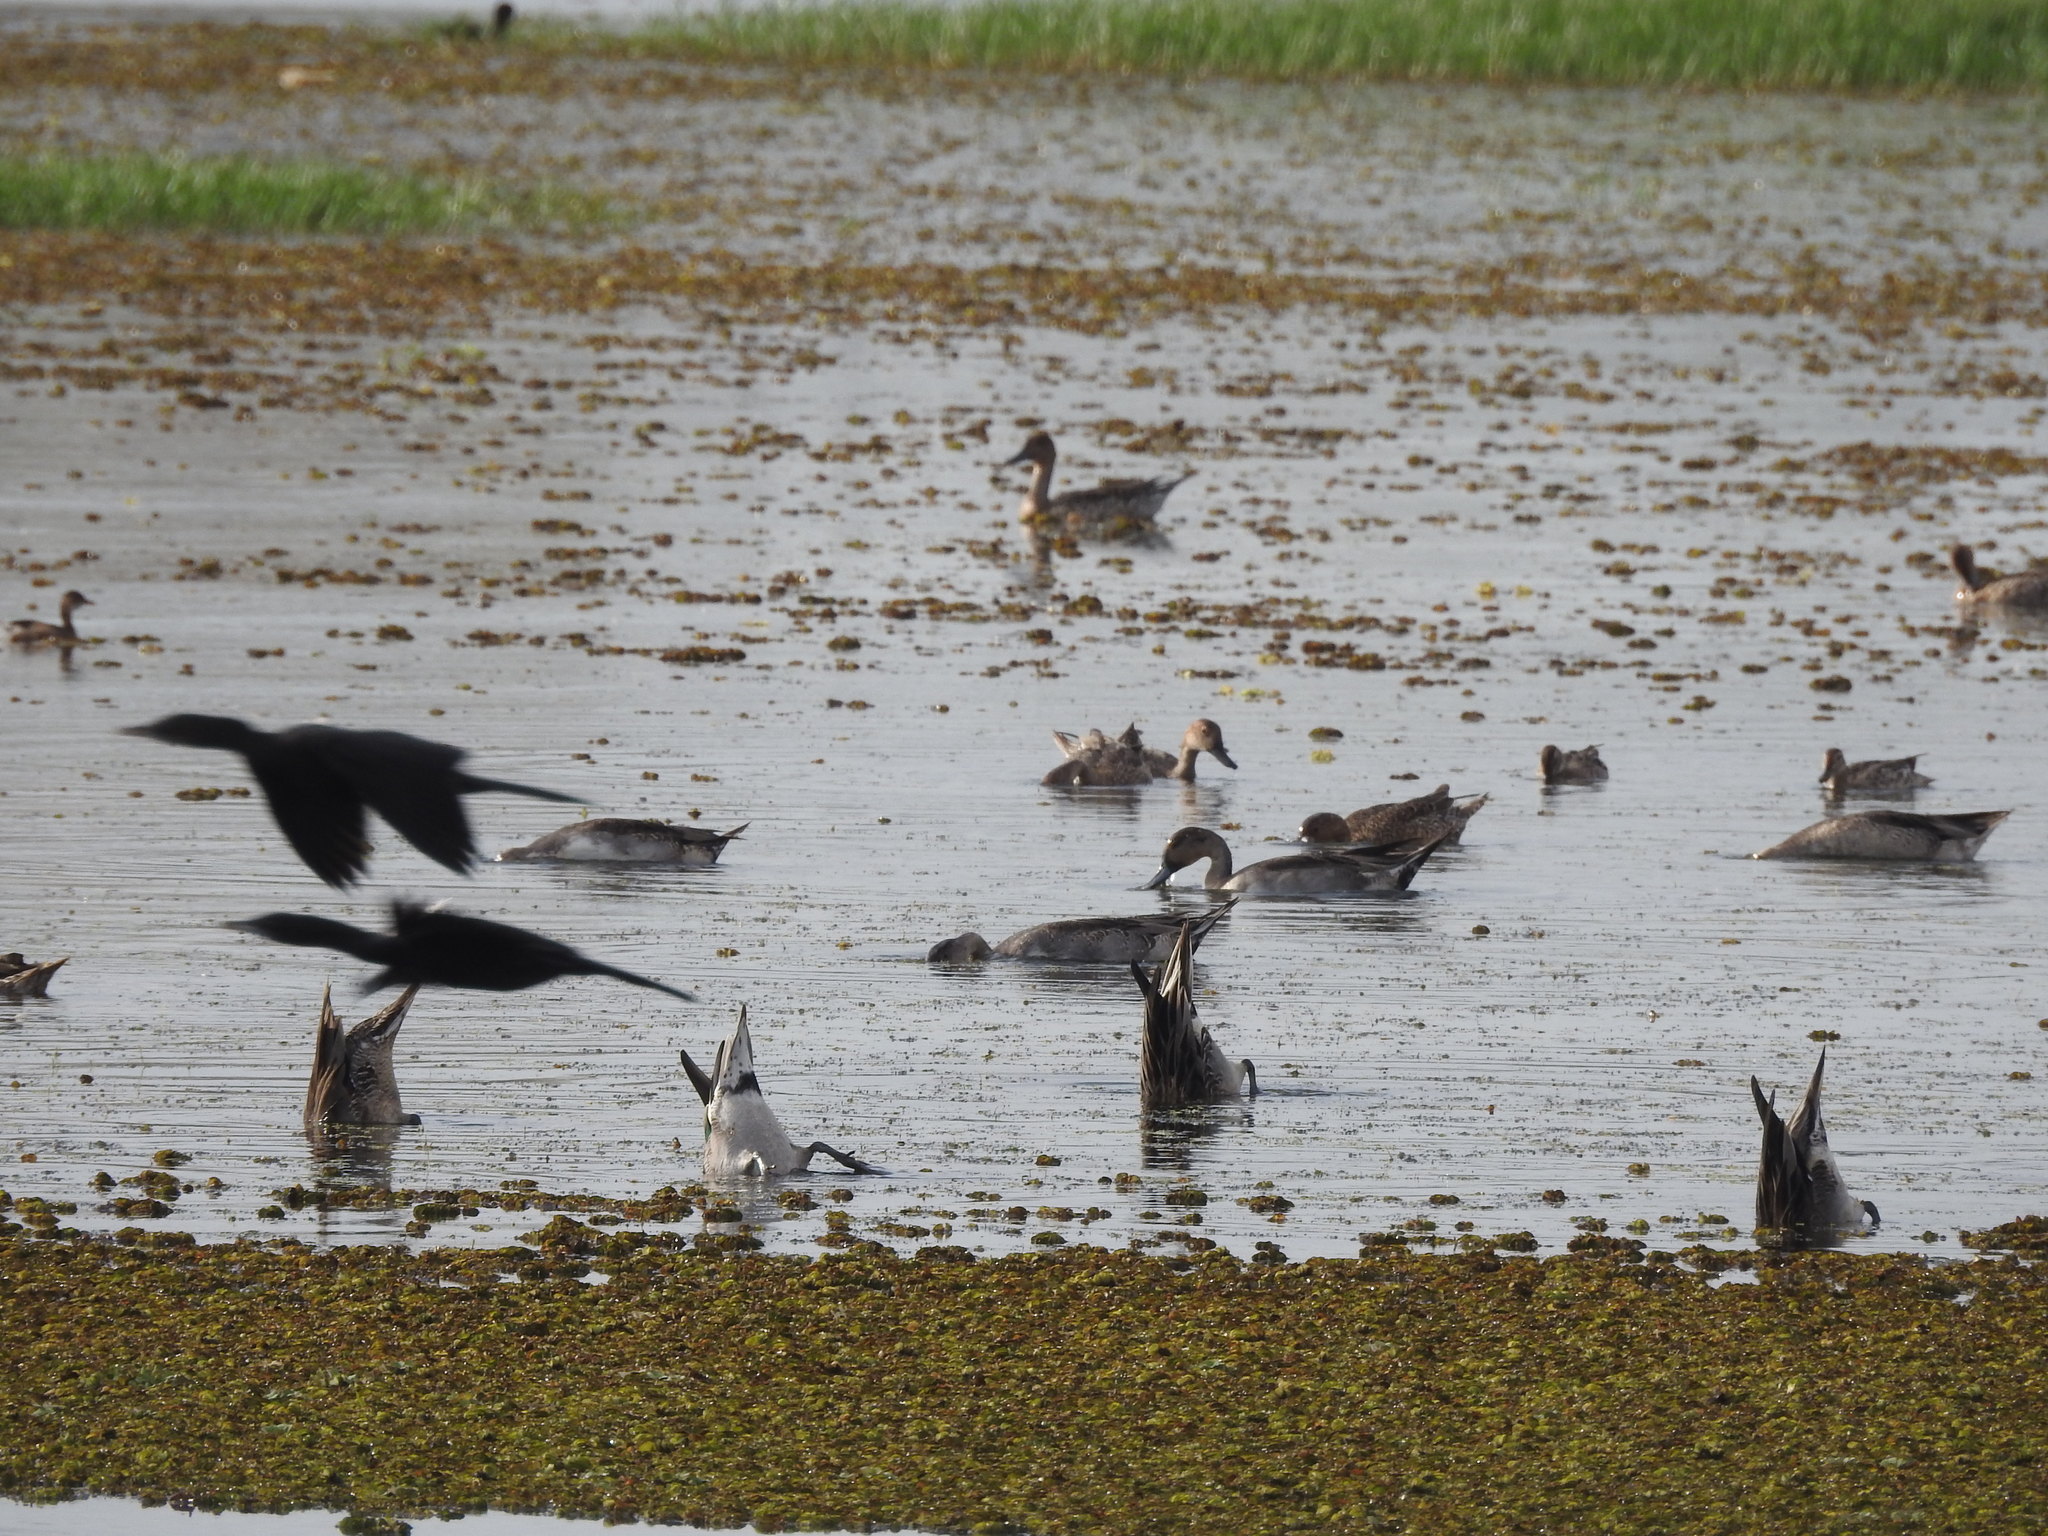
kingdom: Animalia
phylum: Chordata
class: Aves
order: Suliformes
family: Phalacrocoracidae
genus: Microcarbo
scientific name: Microcarbo niger
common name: Little cormorant
